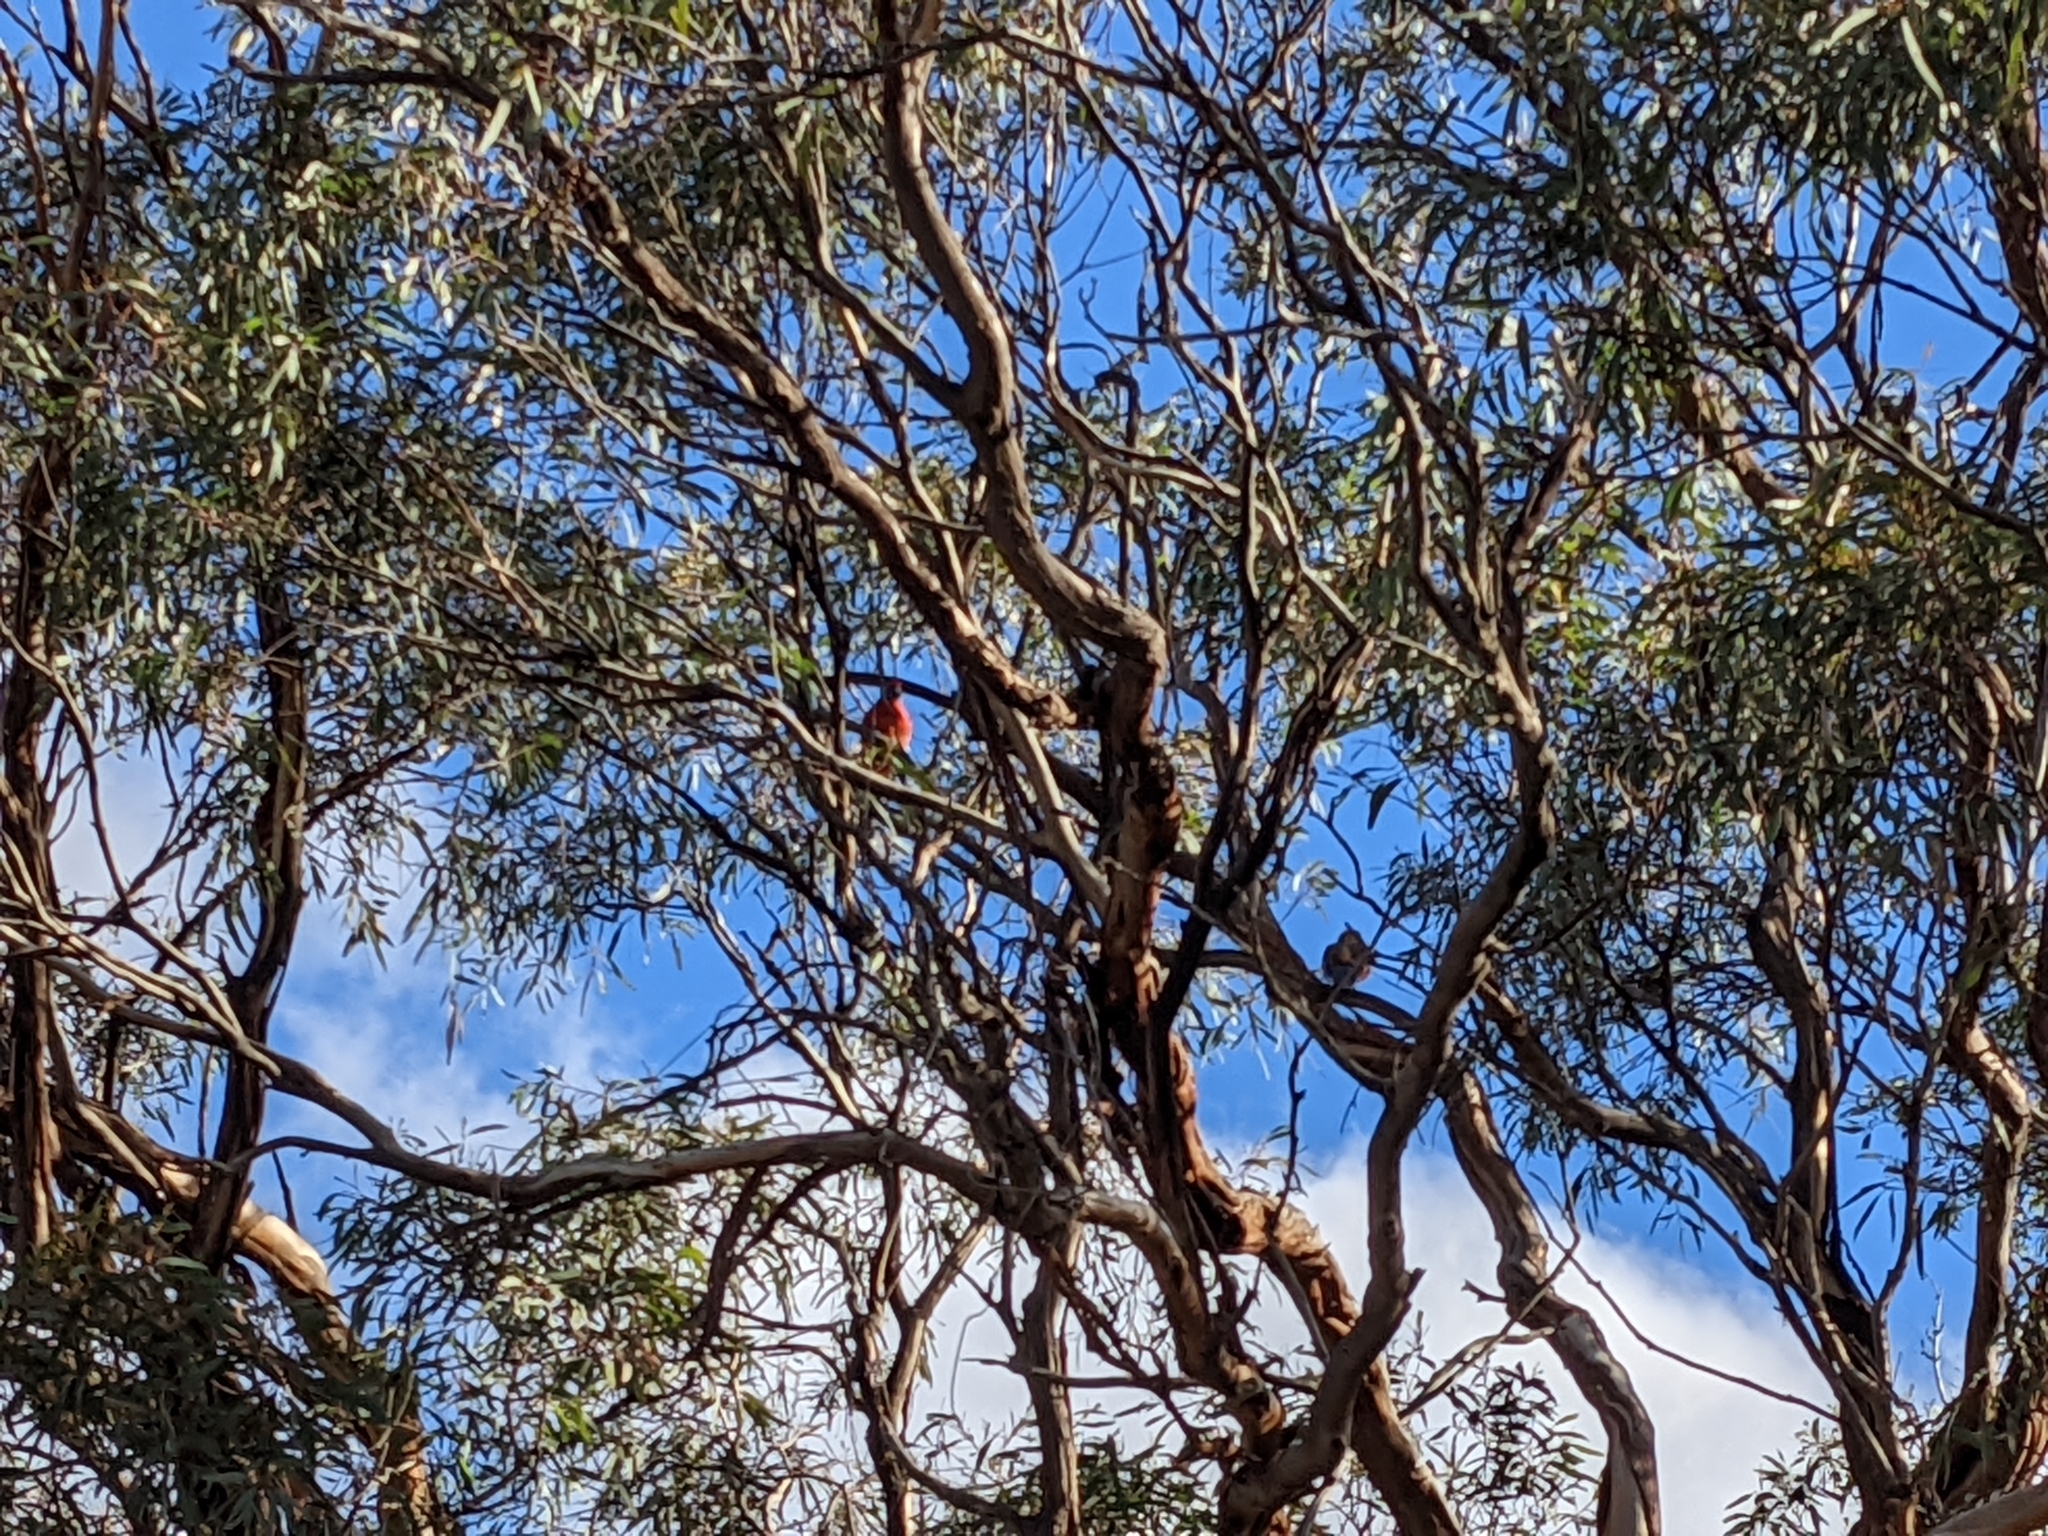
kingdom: Animalia
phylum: Chordata
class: Aves
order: Psittaciformes
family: Psittacidae
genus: Platycercus
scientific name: Platycercus elegans
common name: Crimson rosella
